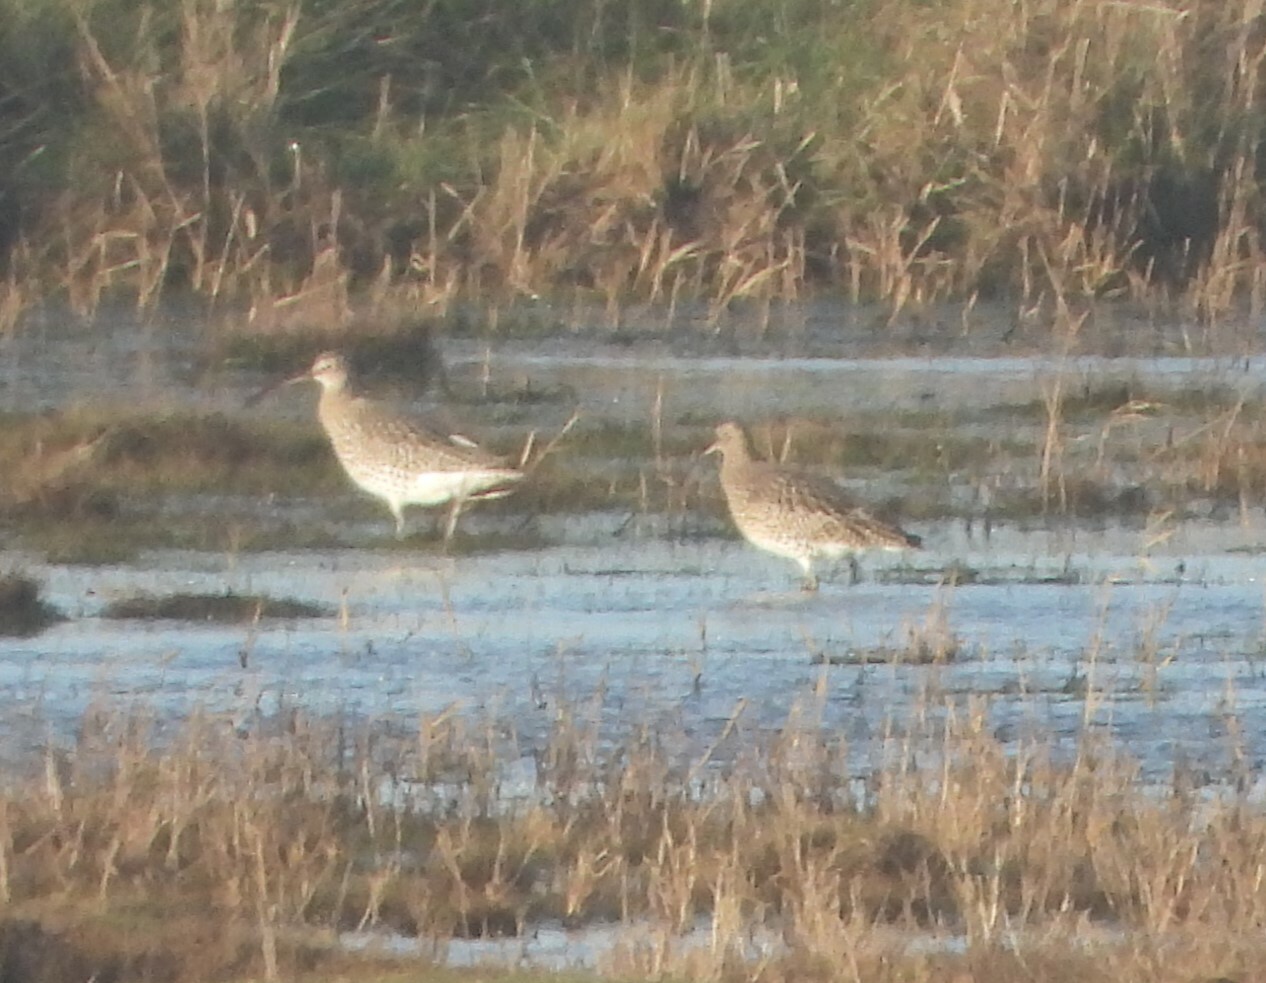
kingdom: Animalia
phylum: Chordata
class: Aves
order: Charadriiformes
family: Scolopacidae
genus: Numenius
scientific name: Numenius arquata
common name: Eurasian curlew
